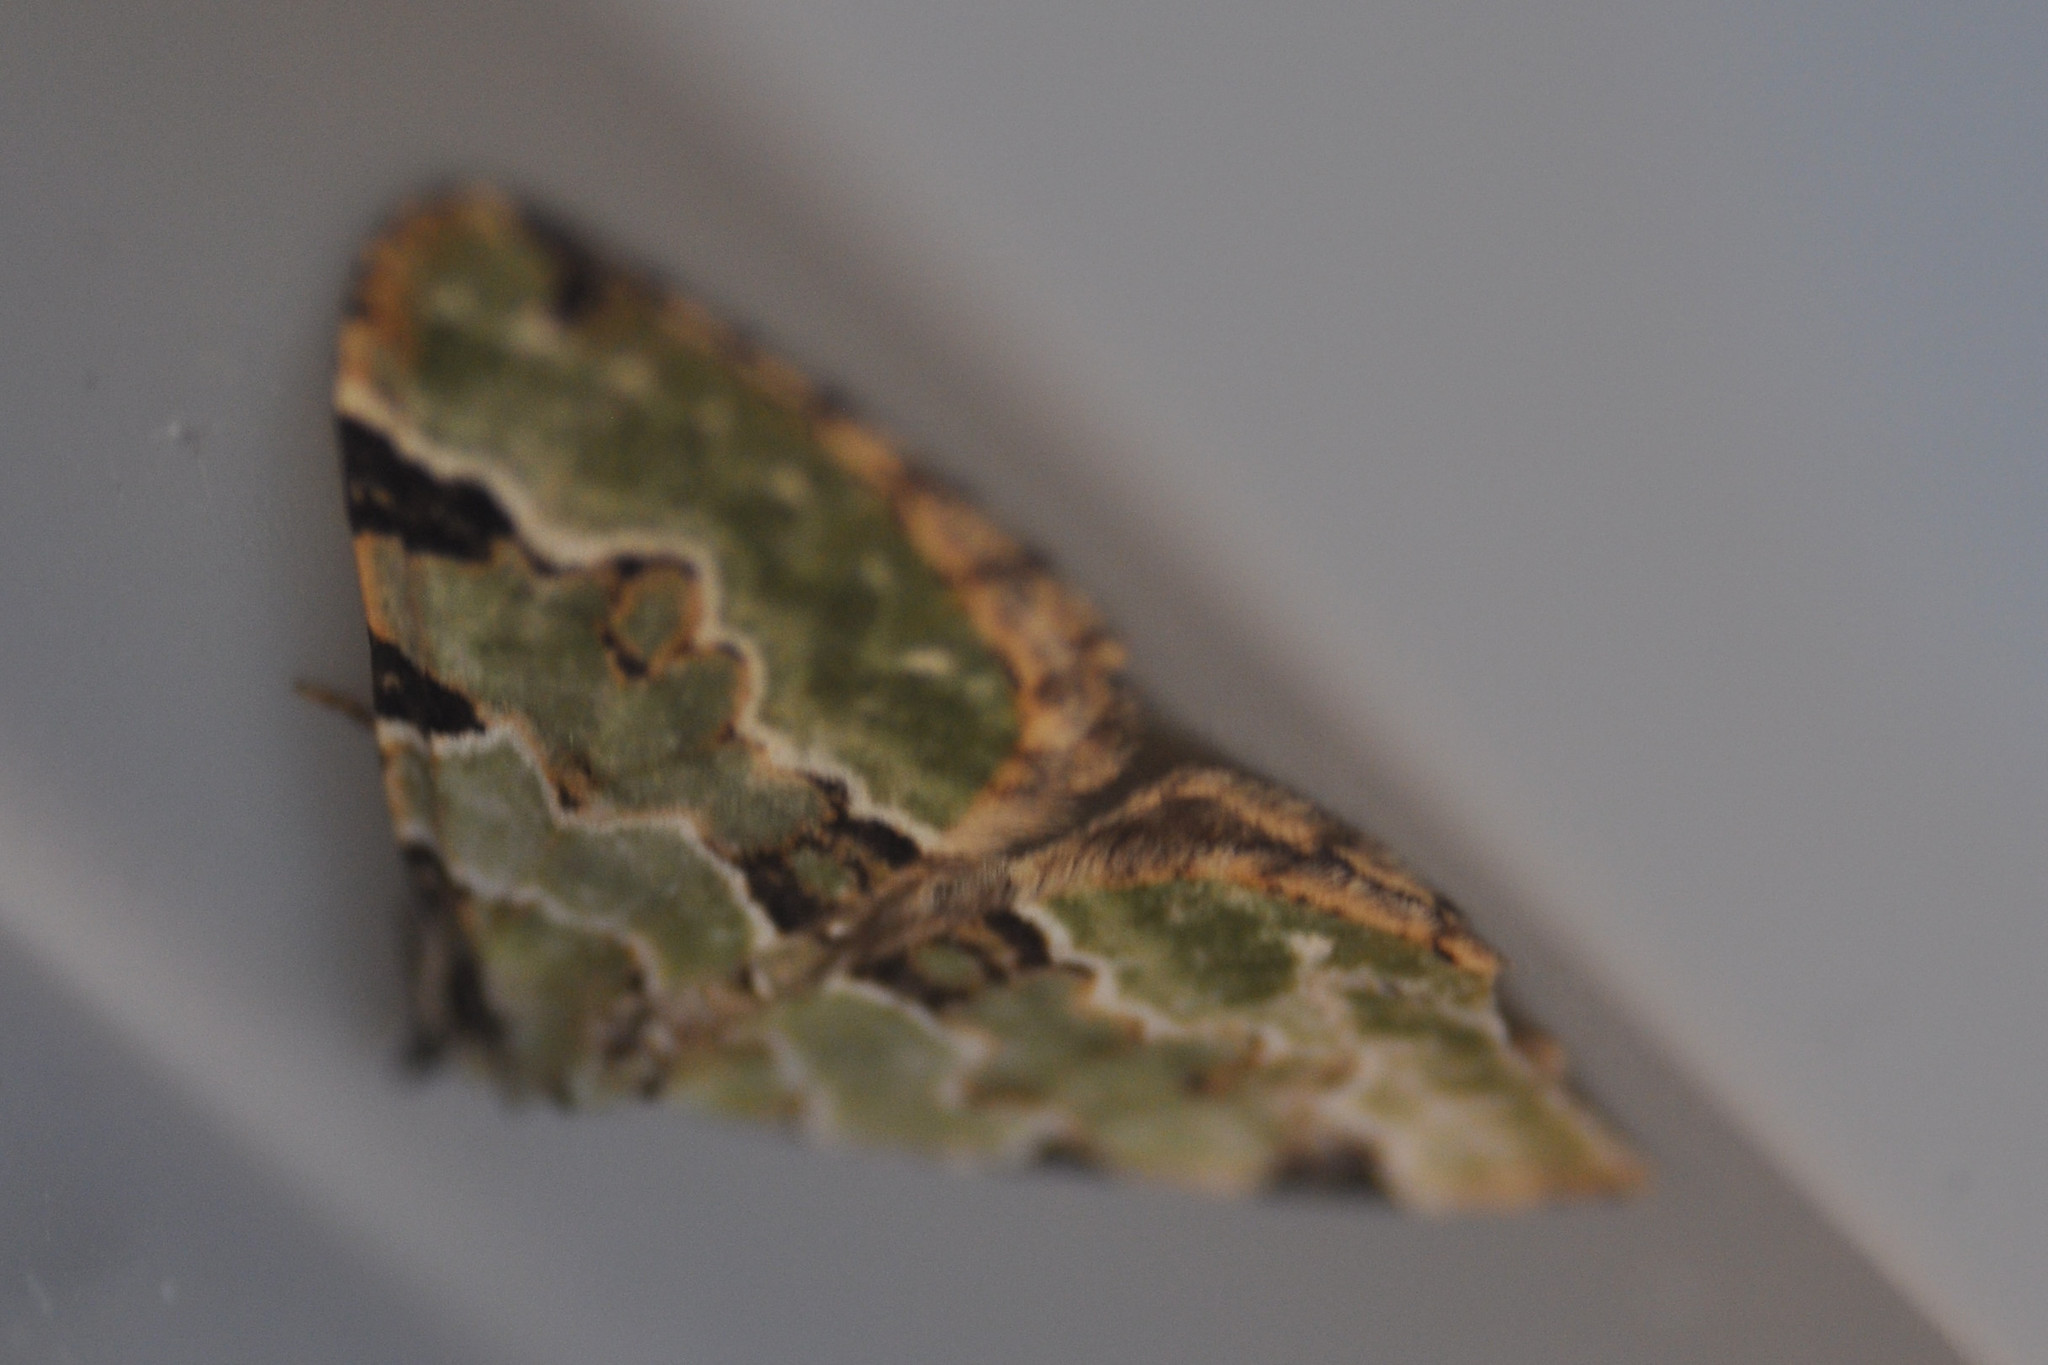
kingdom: Animalia
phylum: Arthropoda
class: Insecta
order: Lepidoptera
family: Geometridae
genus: Colostygia
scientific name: Colostygia pectinataria
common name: Green carpet
